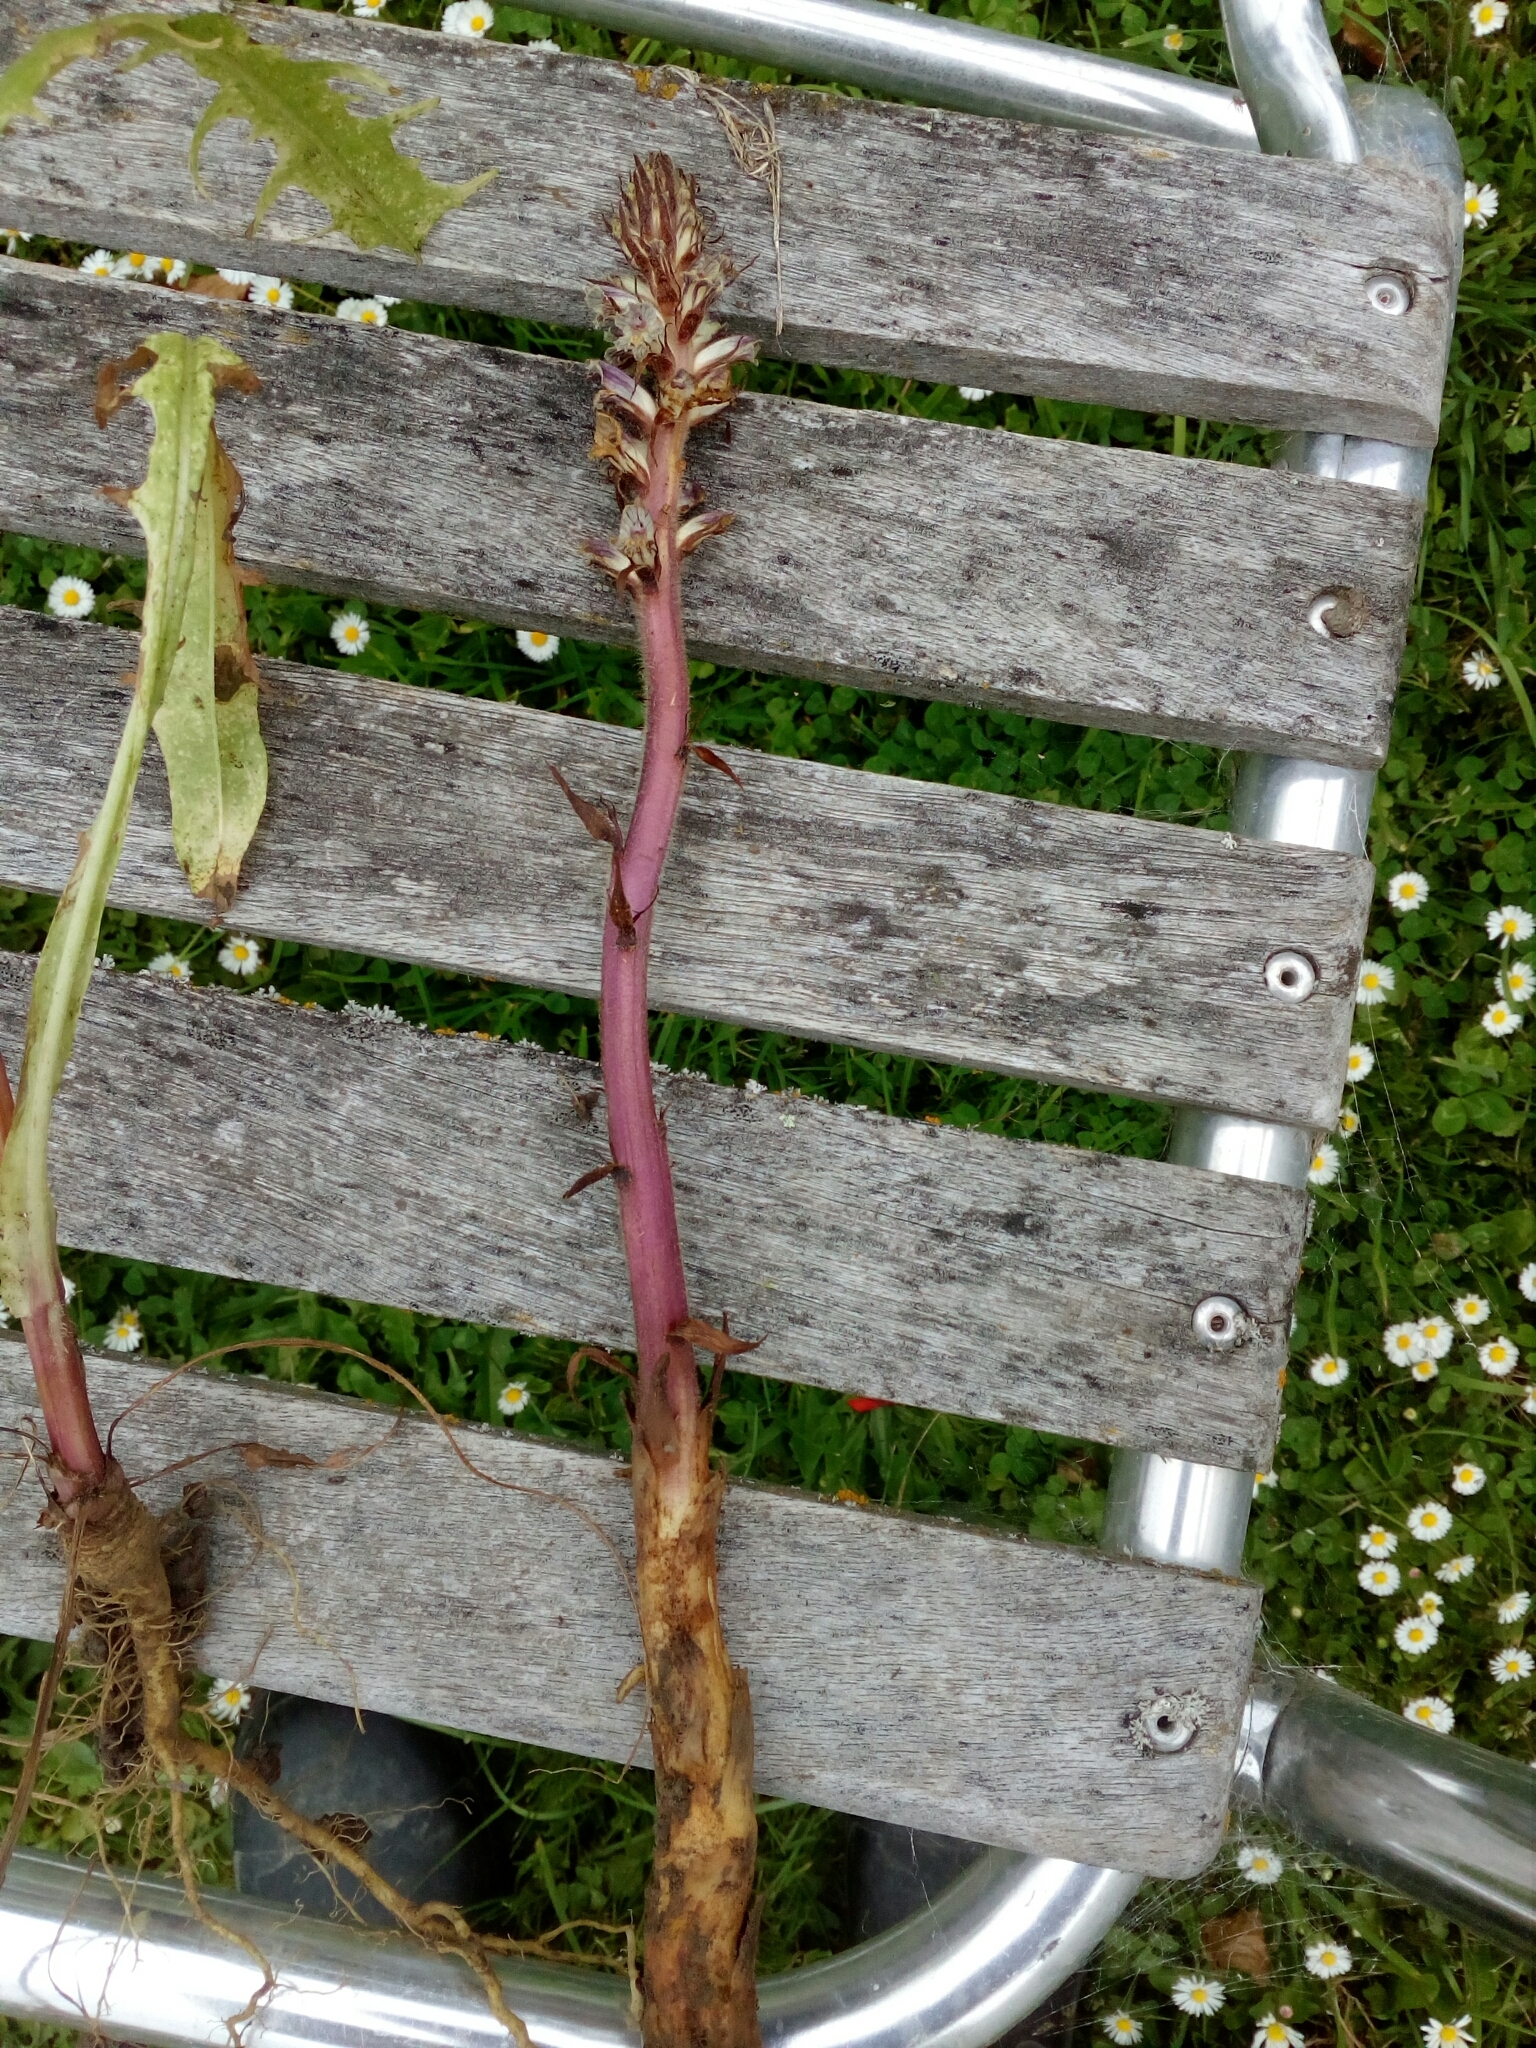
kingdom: Plantae
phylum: Tracheophyta
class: Magnoliopsida
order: Lamiales
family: Orobanchaceae
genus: Orobanche
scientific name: Orobanche minor
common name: Common broomrape
